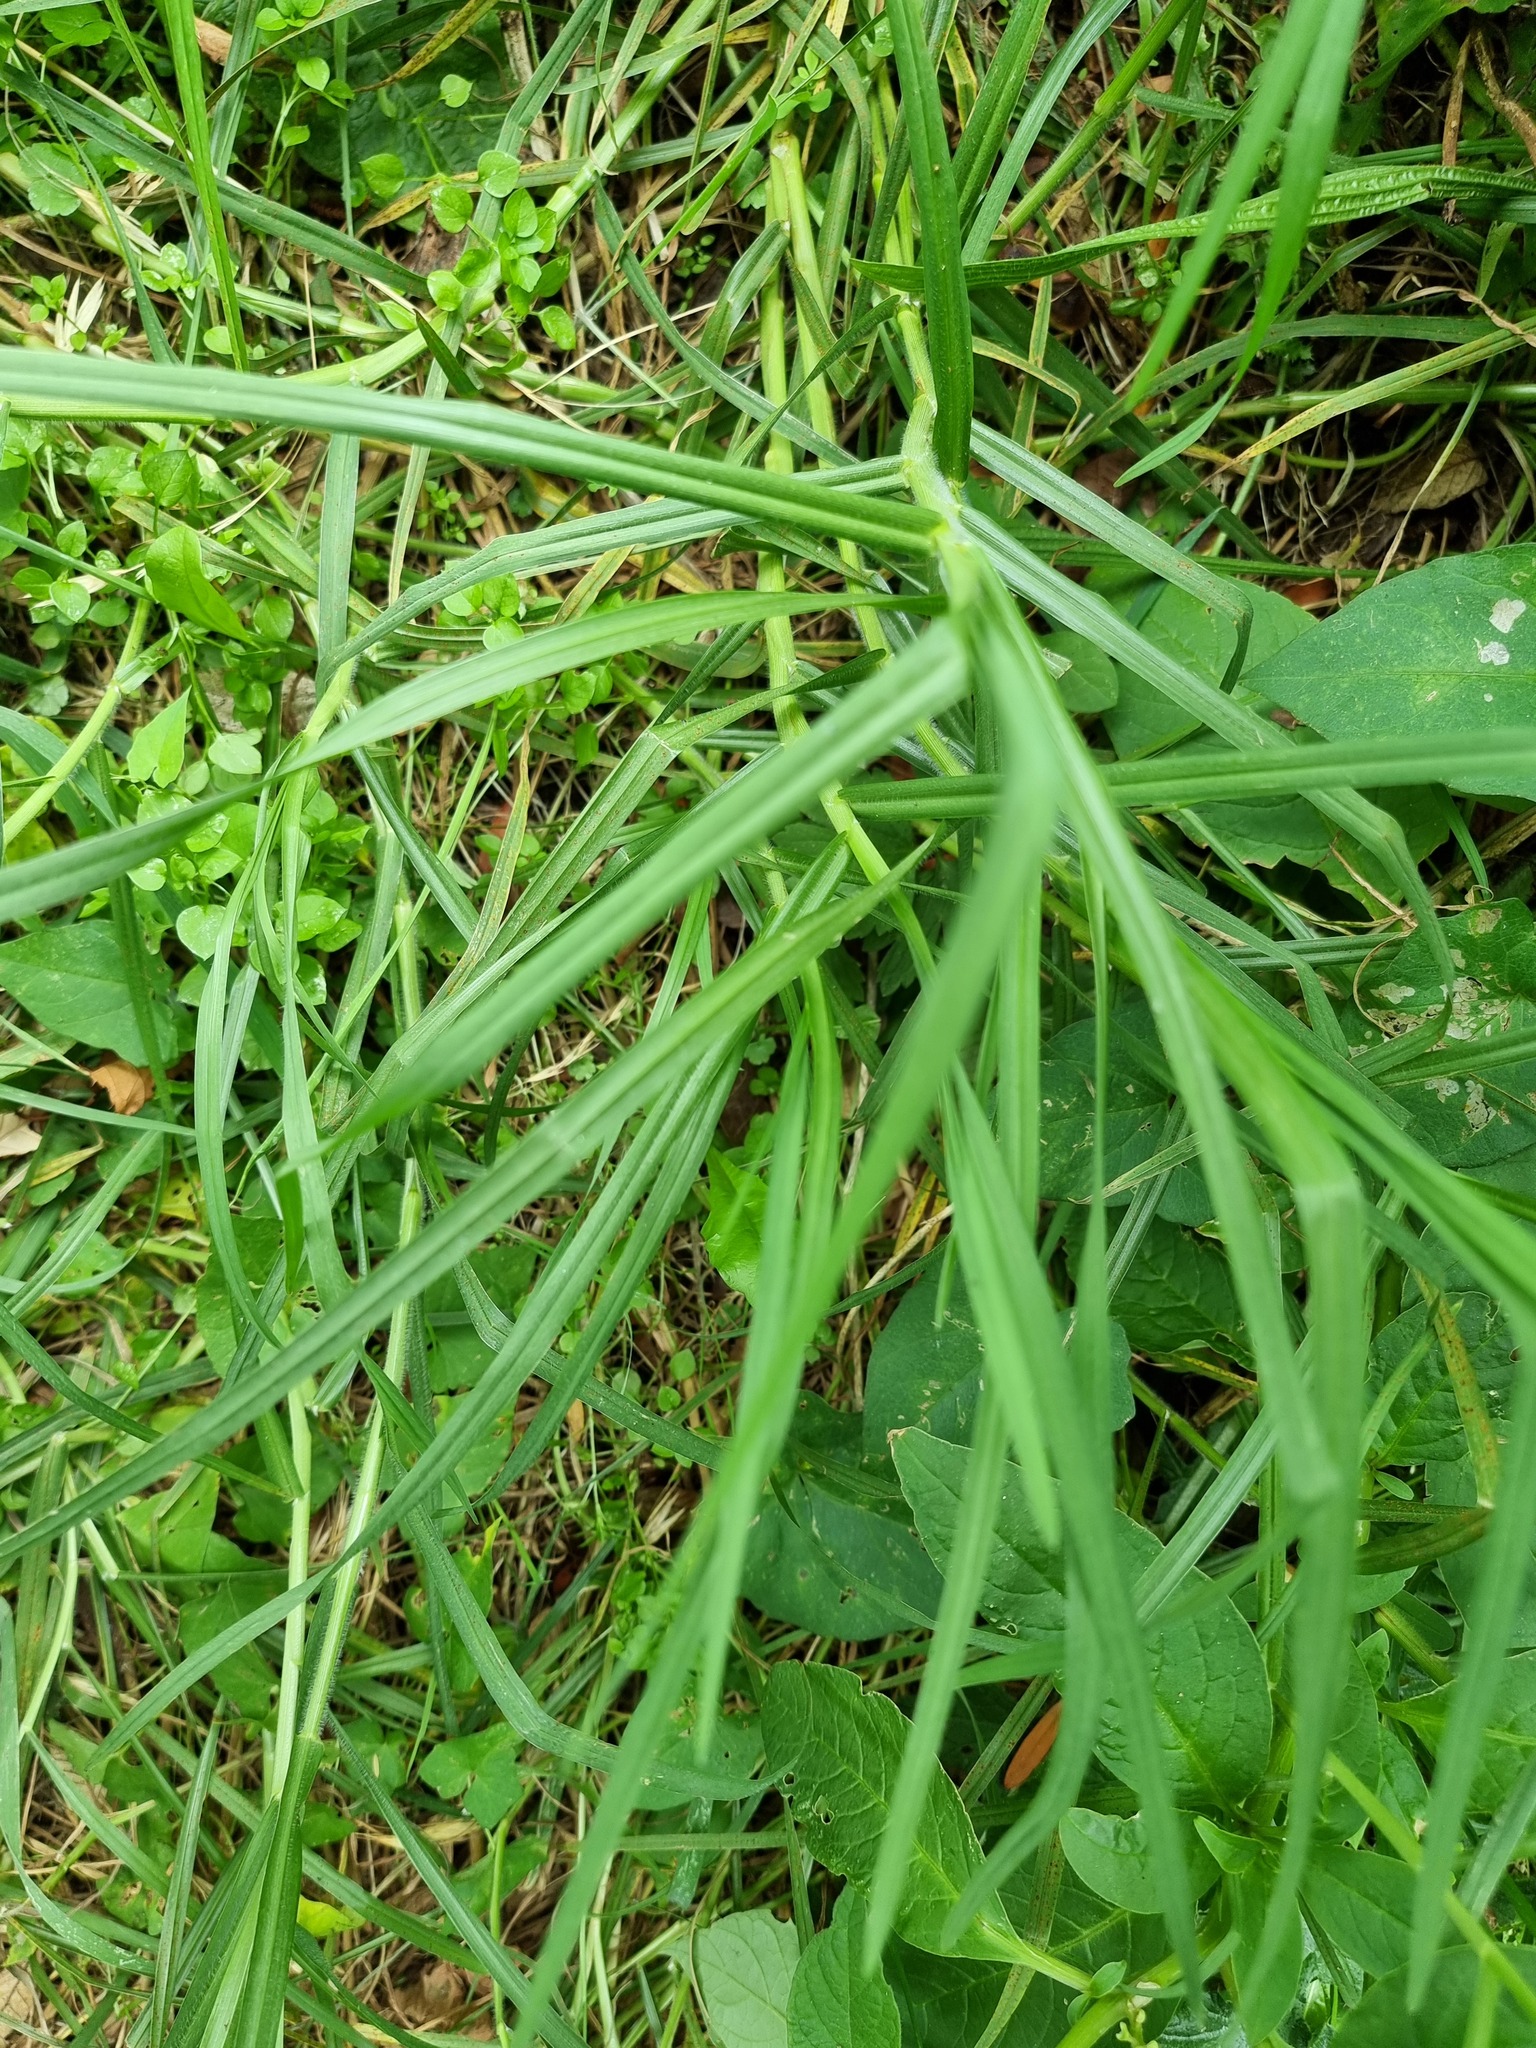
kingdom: Plantae
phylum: Tracheophyta
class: Liliopsida
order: Poales
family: Poaceae
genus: Cenchrus
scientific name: Cenchrus clandestinus
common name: Kikuyugrass
